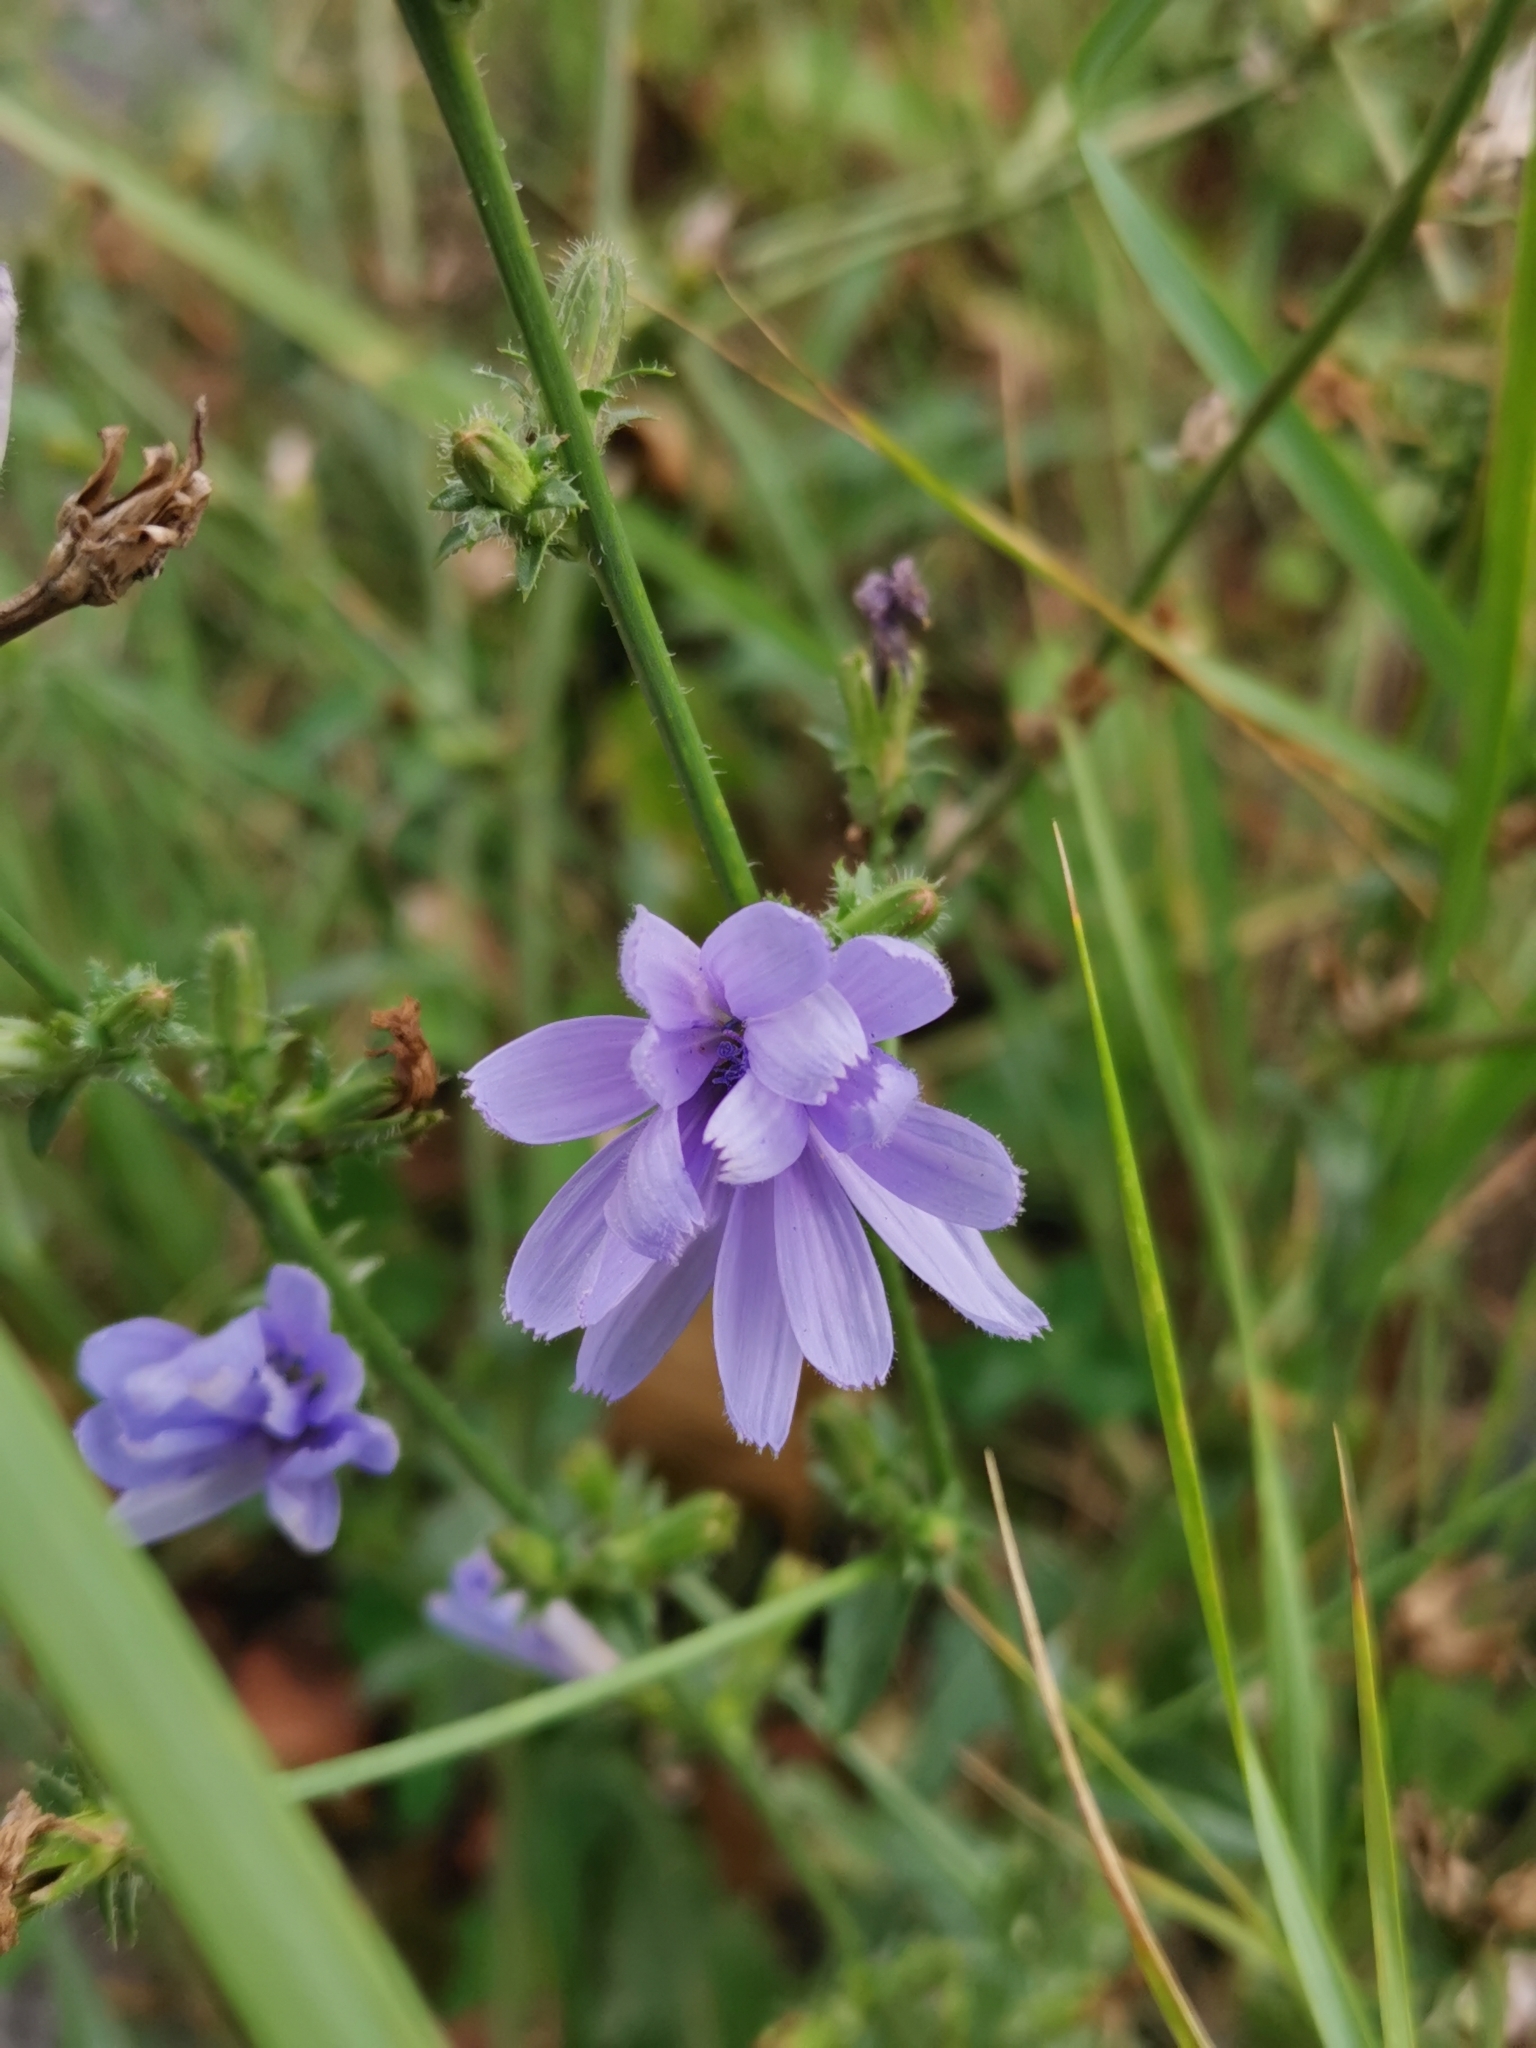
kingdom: Plantae
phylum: Tracheophyta
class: Magnoliopsida
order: Asterales
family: Asteraceae
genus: Cichorium
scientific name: Cichorium intybus
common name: Chicory
